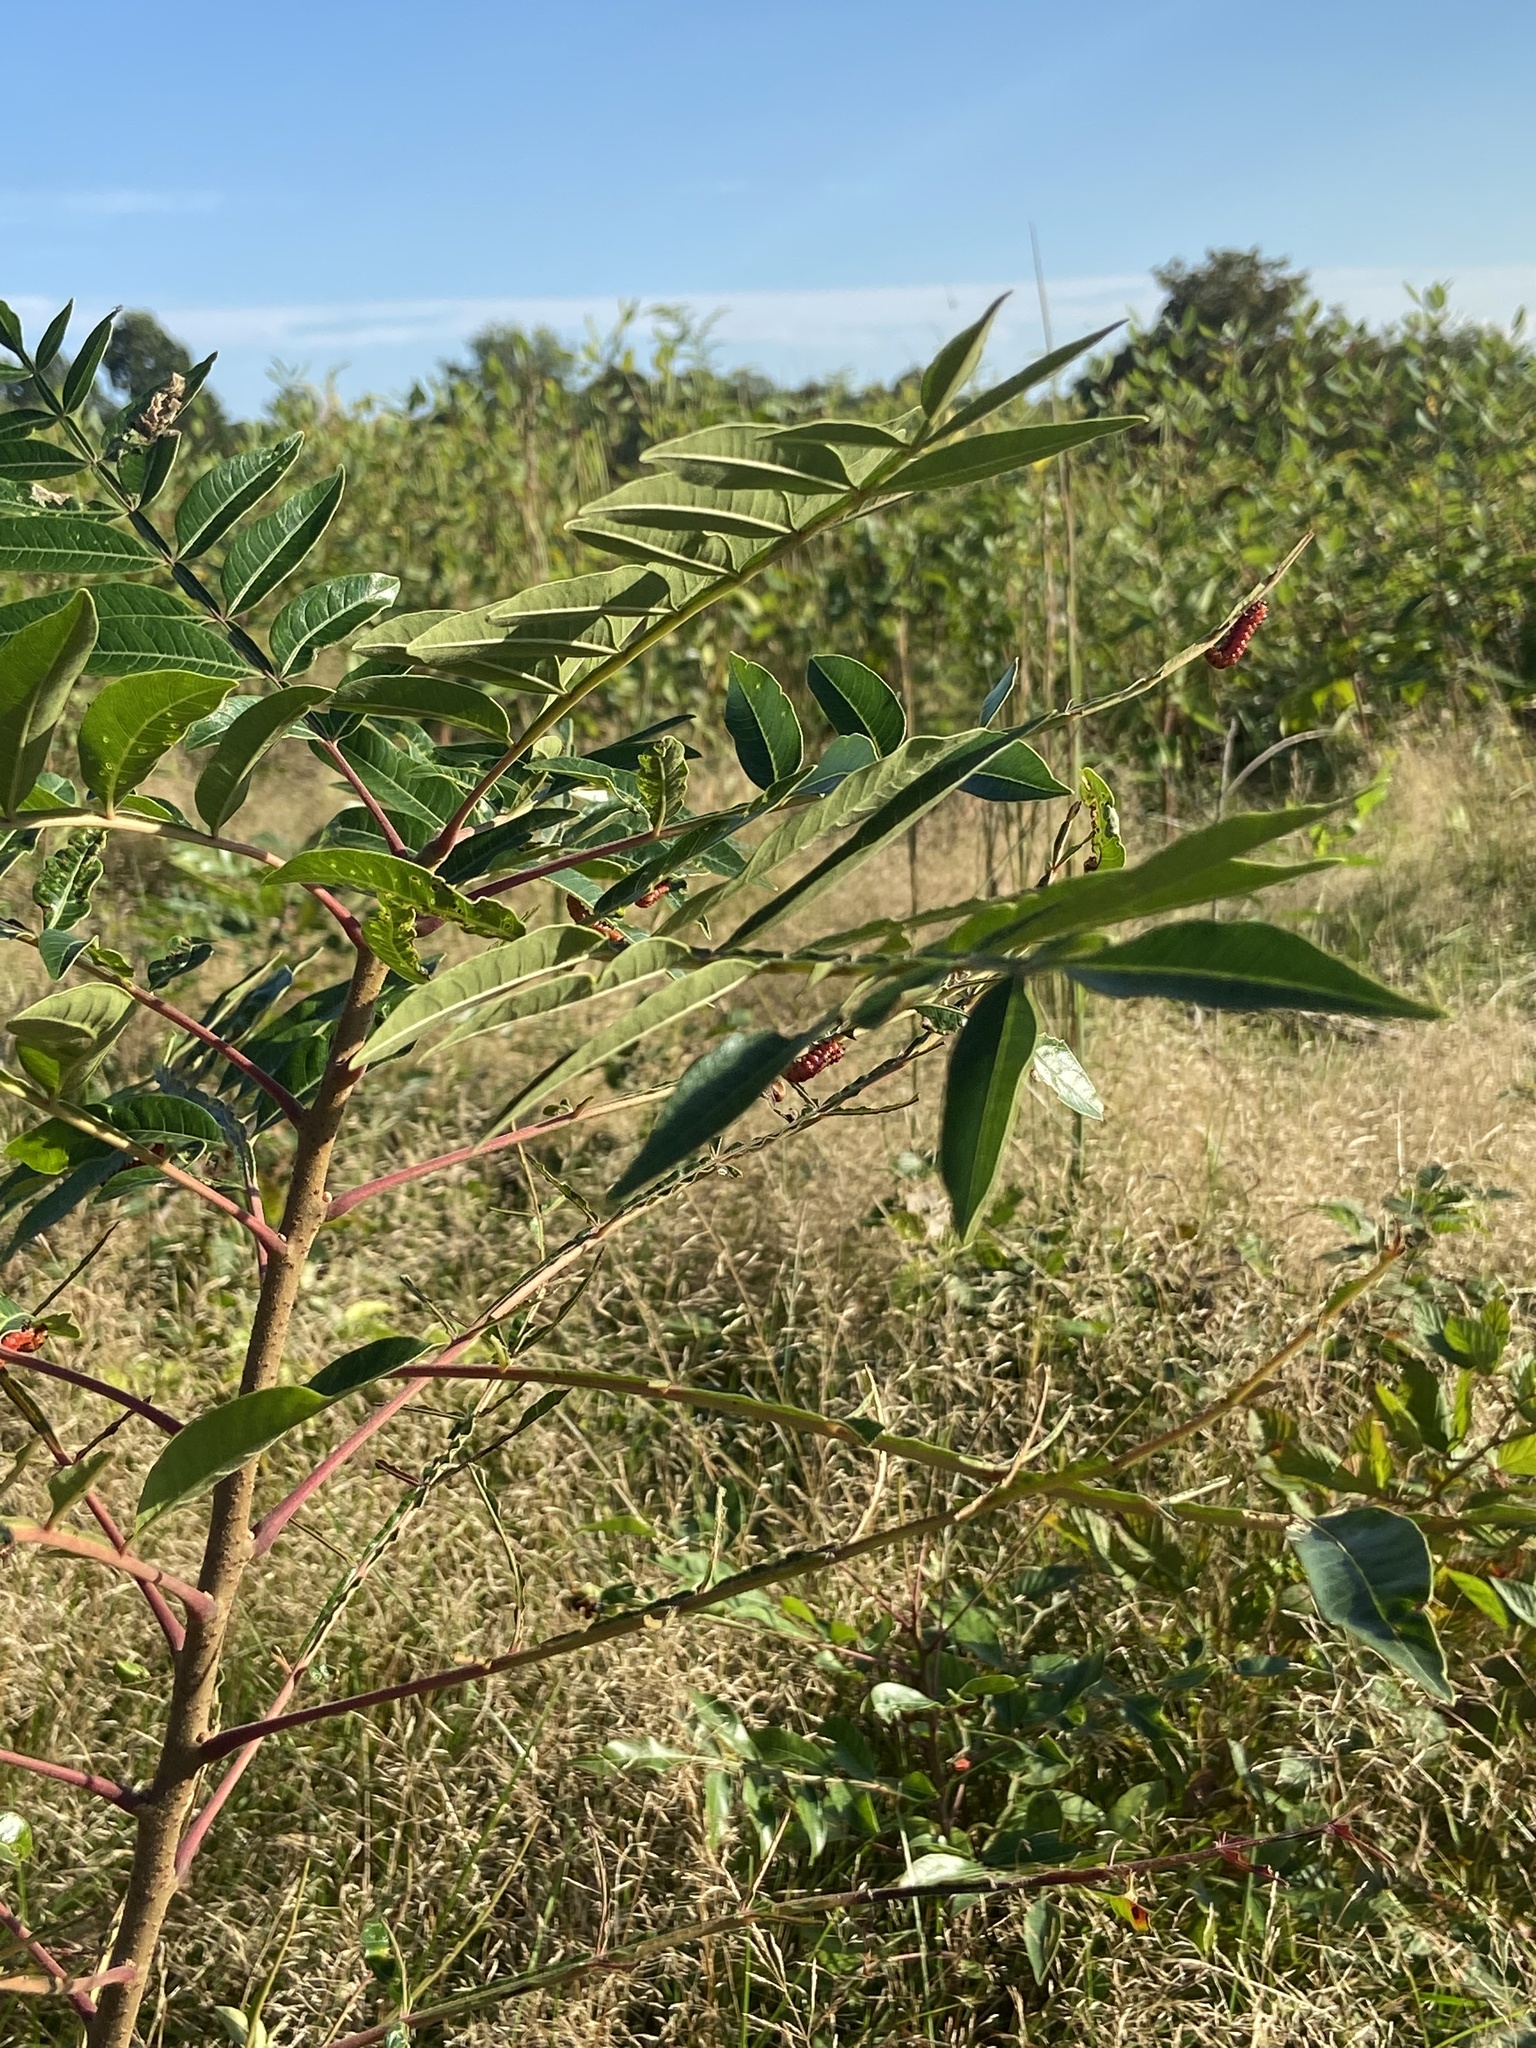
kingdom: Animalia
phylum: Arthropoda
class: Insecta
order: Hymenoptera
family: Argidae
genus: Arge
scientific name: Arge
